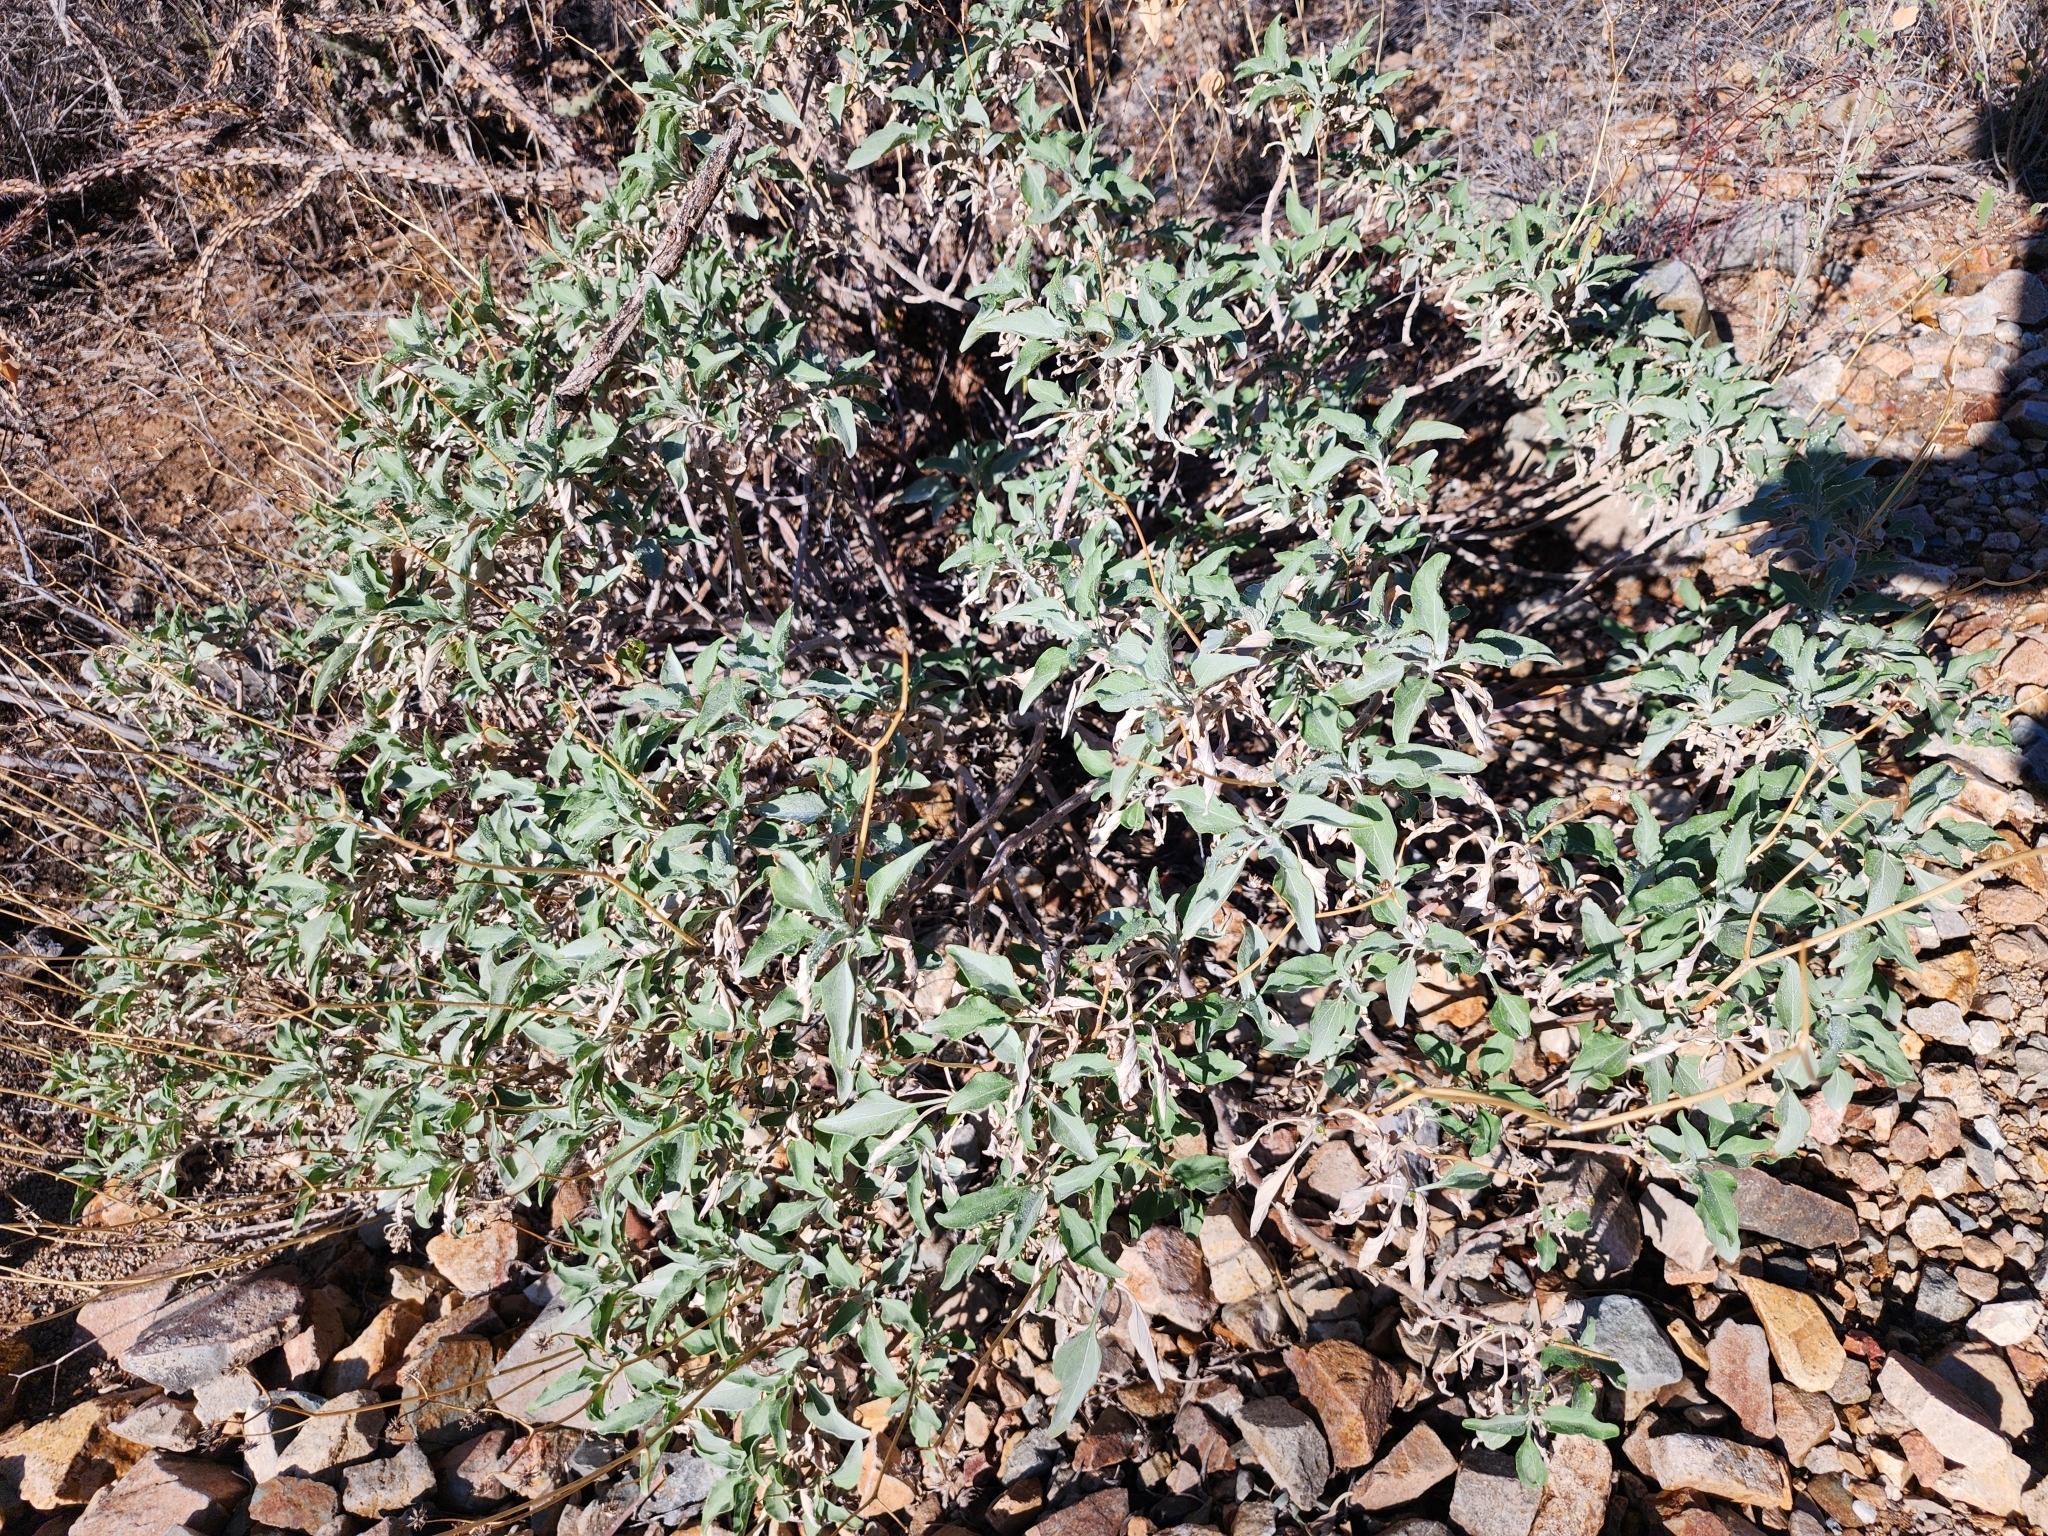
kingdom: Plantae
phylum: Tracheophyta
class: Magnoliopsida
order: Asterales
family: Asteraceae
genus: Encelia
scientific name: Encelia farinosa
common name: Brittlebush
